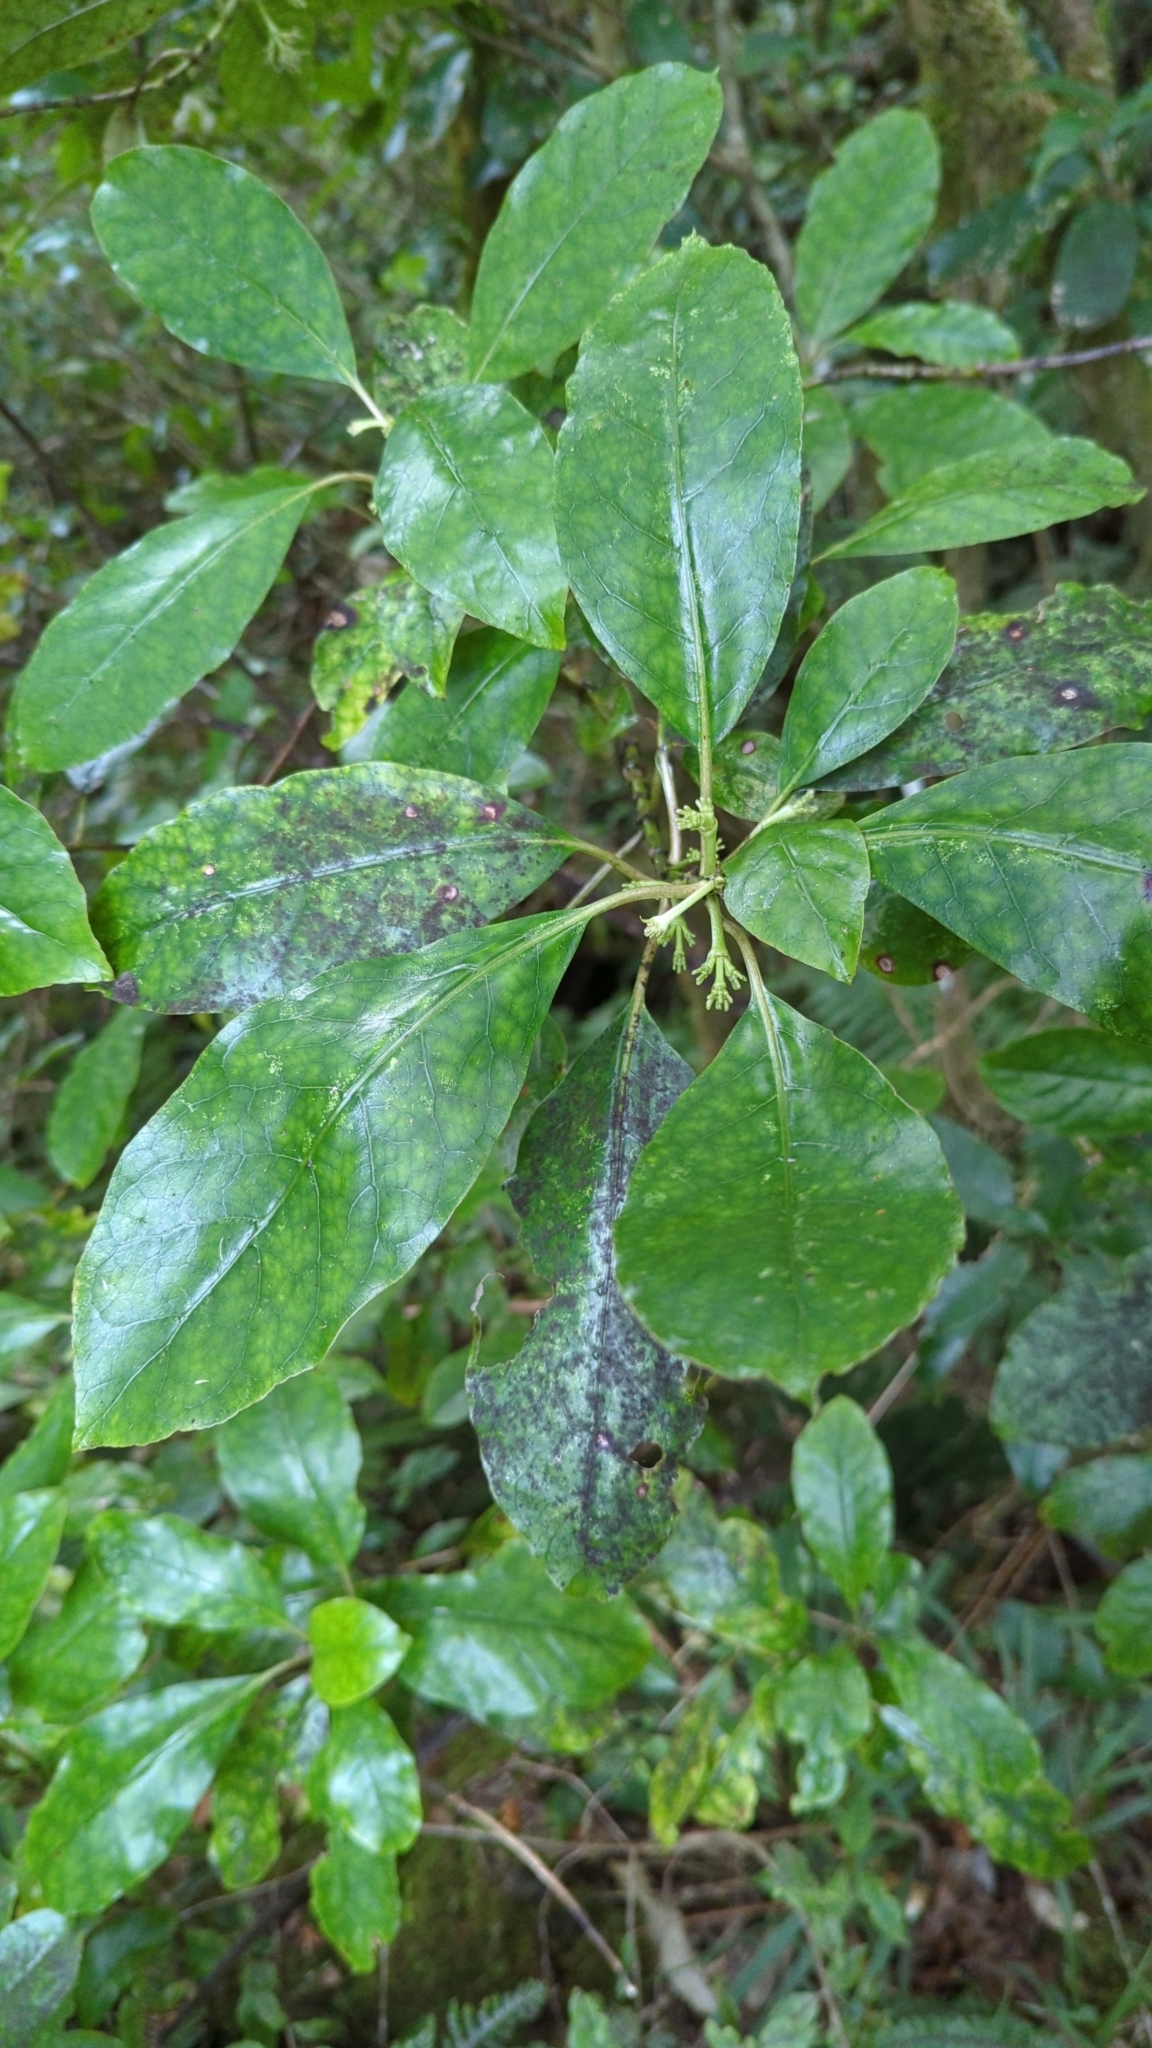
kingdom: Plantae
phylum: Tracheophyta
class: Magnoliopsida
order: Gentianales
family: Rubiaceae
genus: Coprosma
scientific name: Coprosma autumnalis
